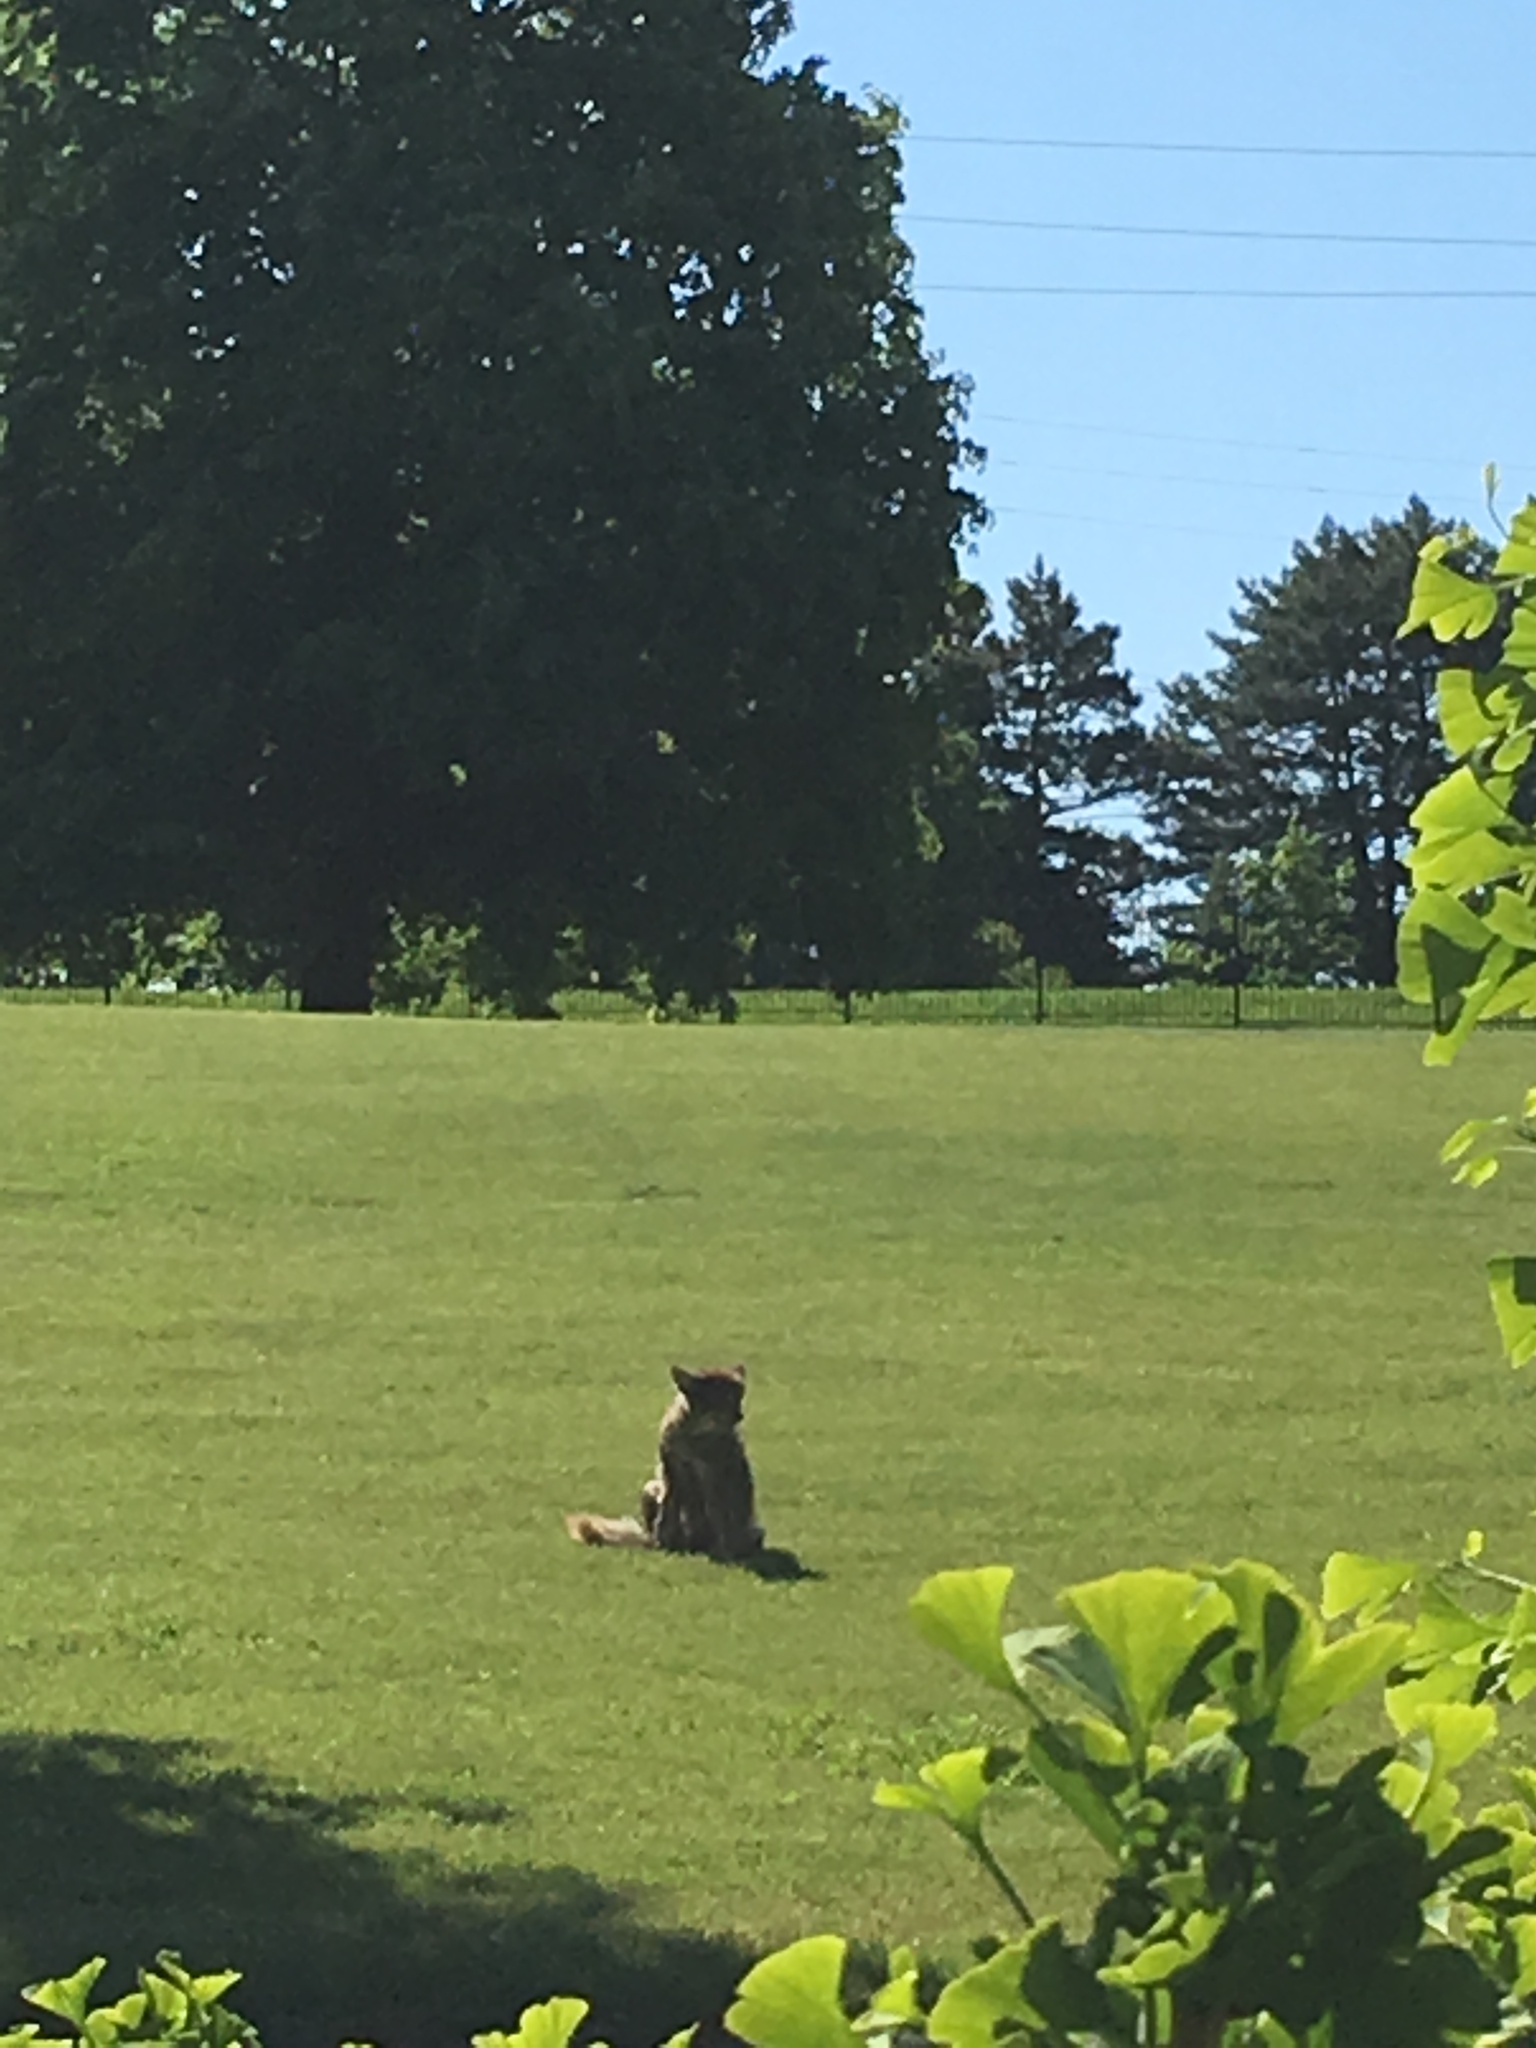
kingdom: Animalia
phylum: Chordata
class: Mammalia
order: Carnivora
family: Canidae
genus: Canis
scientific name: Canis latrans
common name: Coyote
